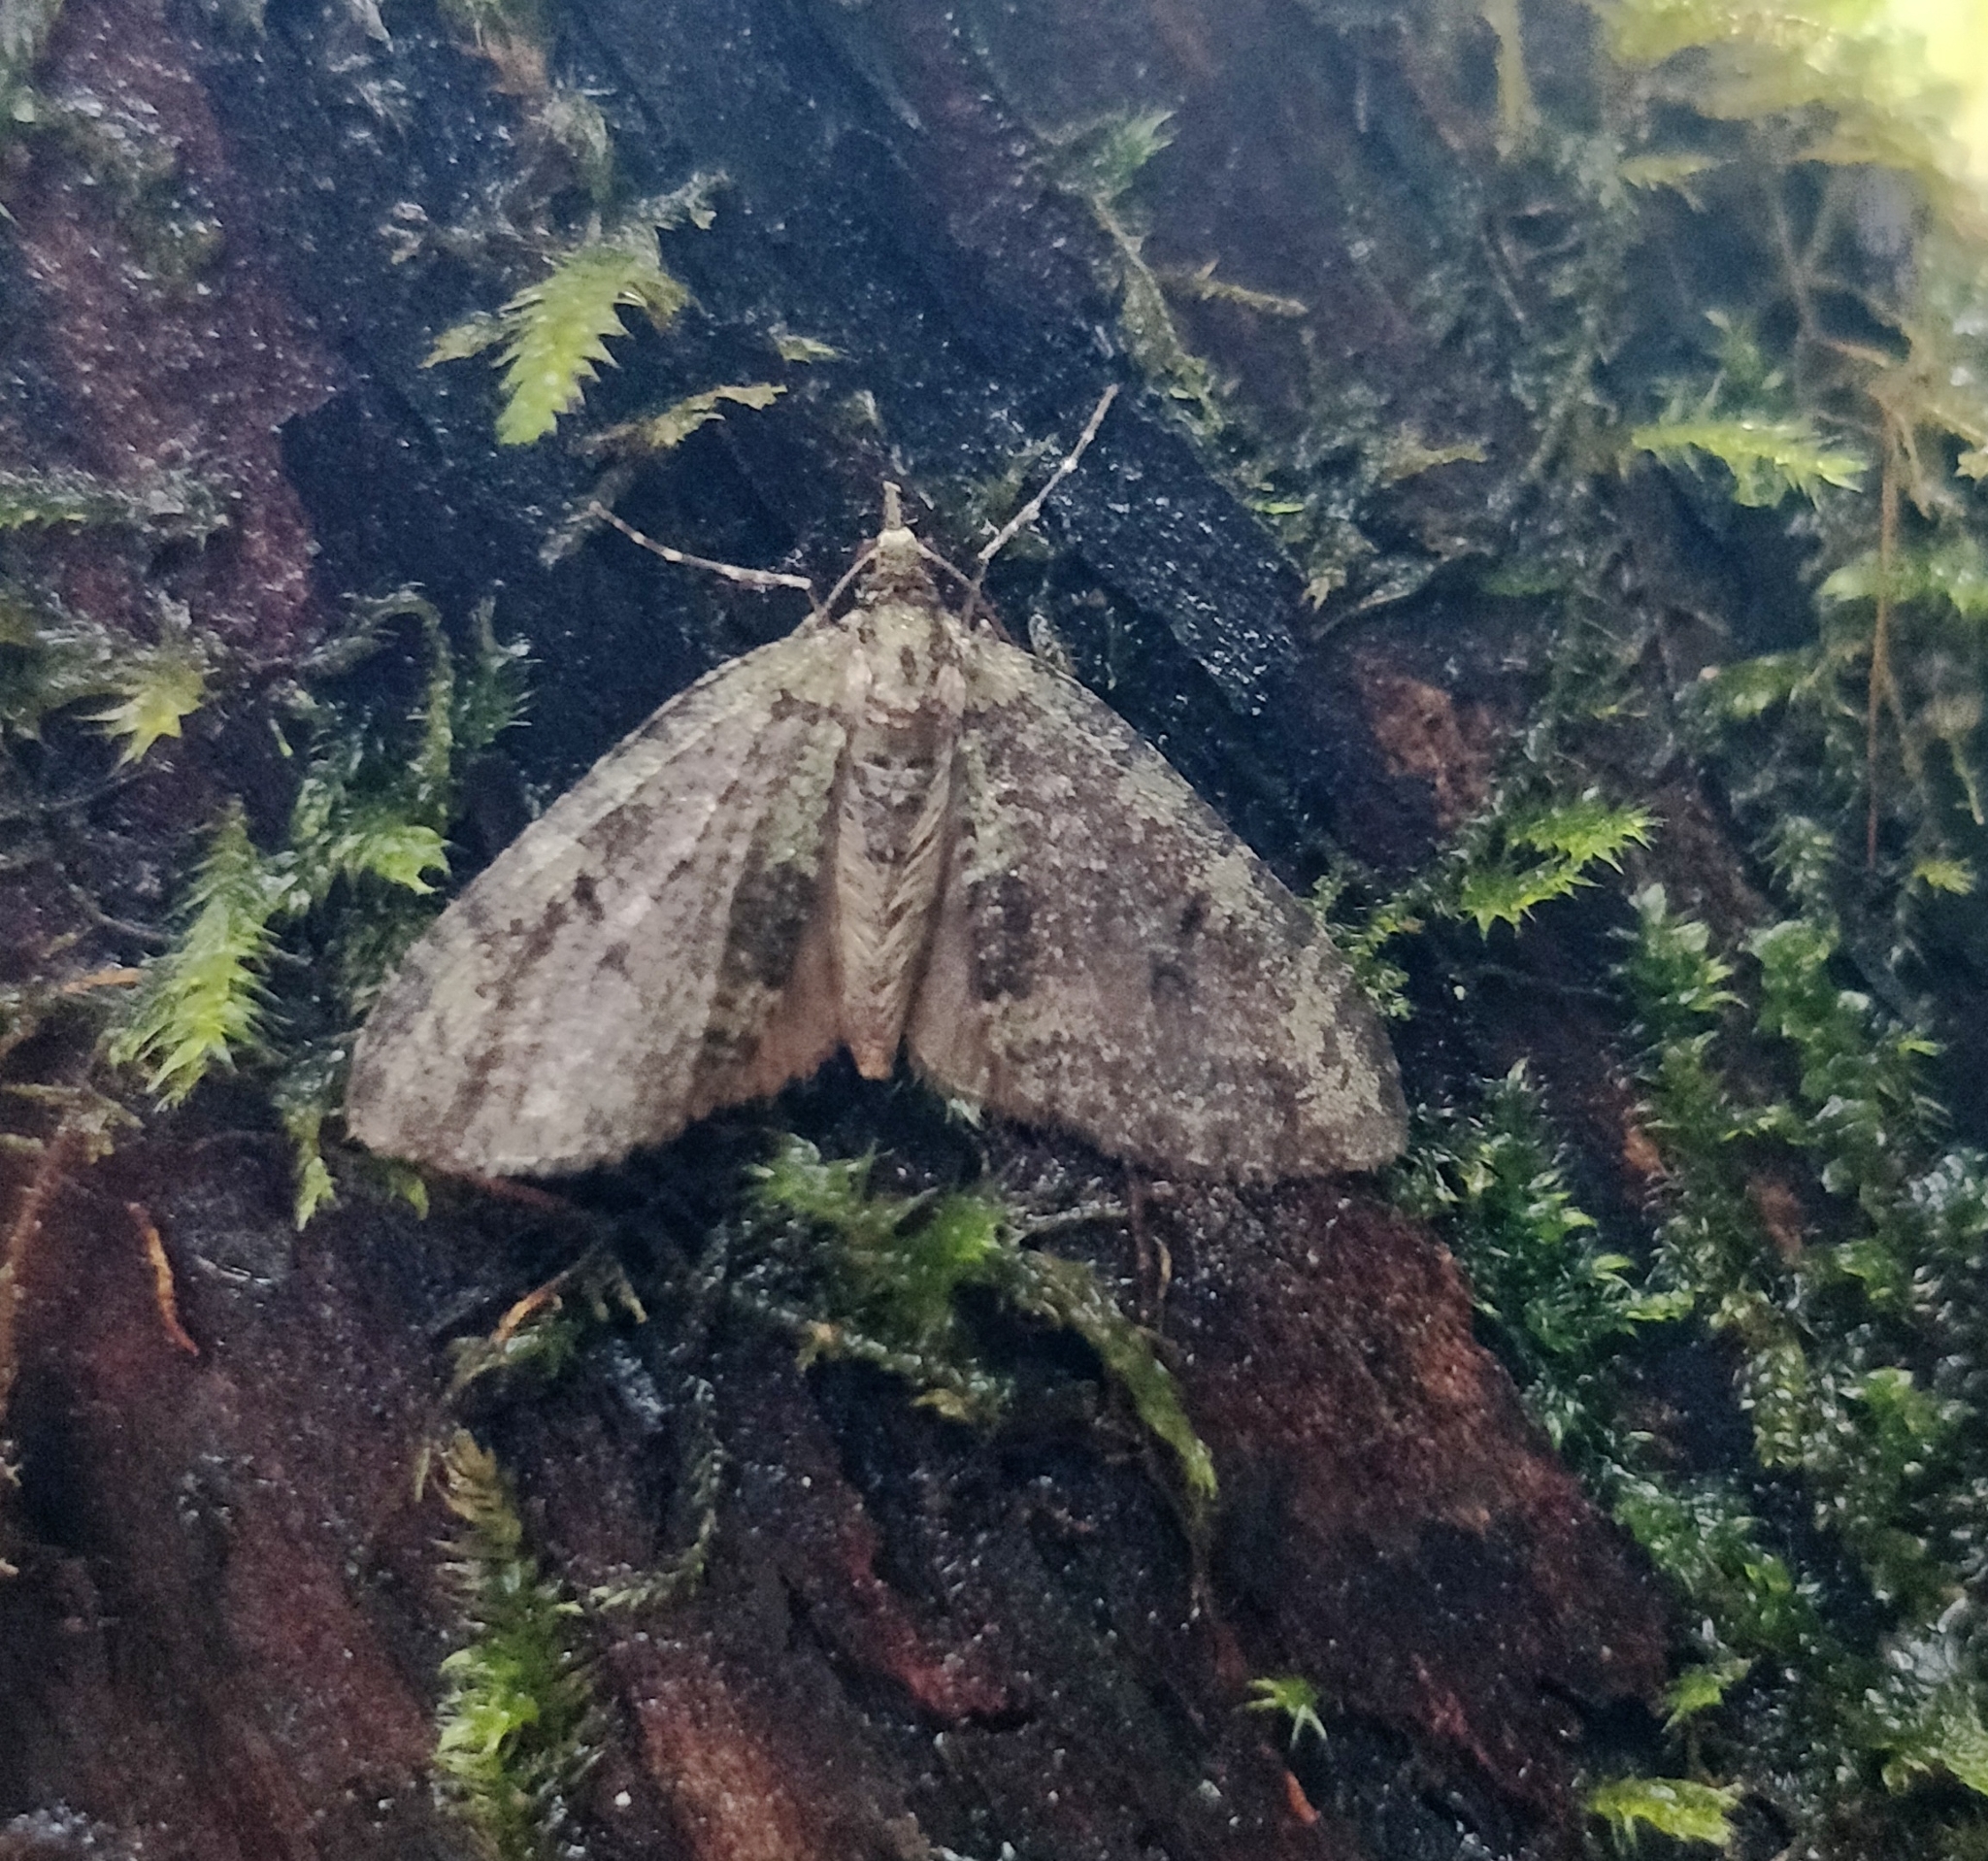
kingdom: Animalia
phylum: Arthropoda
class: Insecta
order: Lepidoptera
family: Geometridae
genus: Episauris
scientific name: Episauris kiliani
